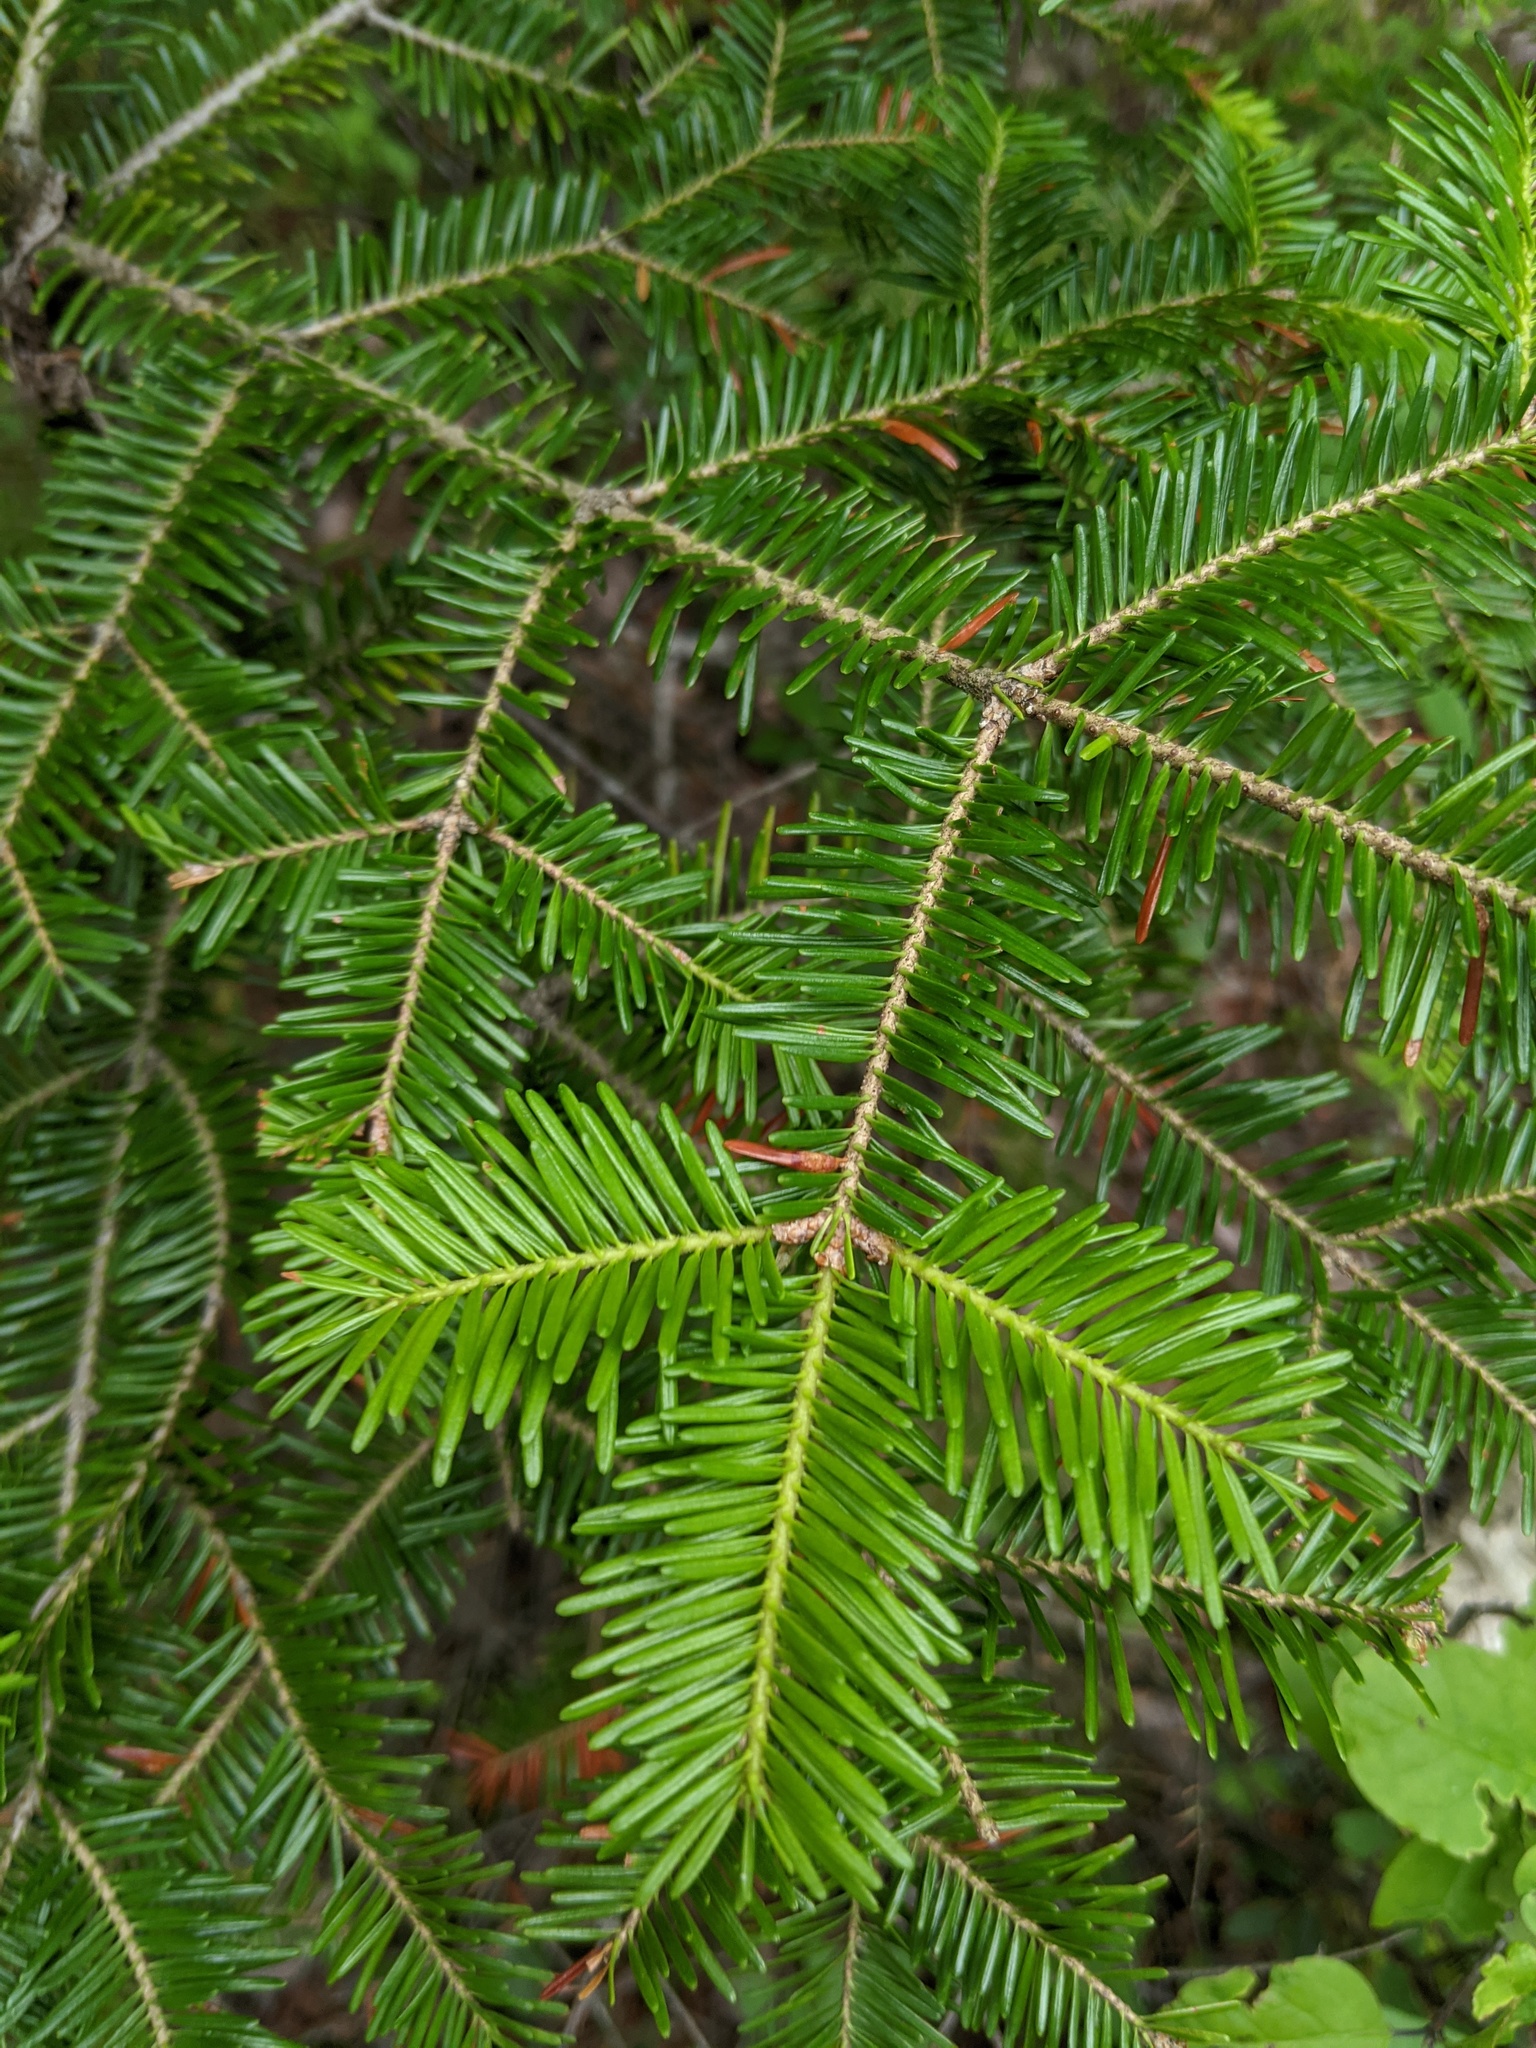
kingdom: Plantae
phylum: Tracheophyta
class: Pinopsida
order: Pinales
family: Pinaceae
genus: Abies
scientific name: Abies balsamea
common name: Balsam fir
